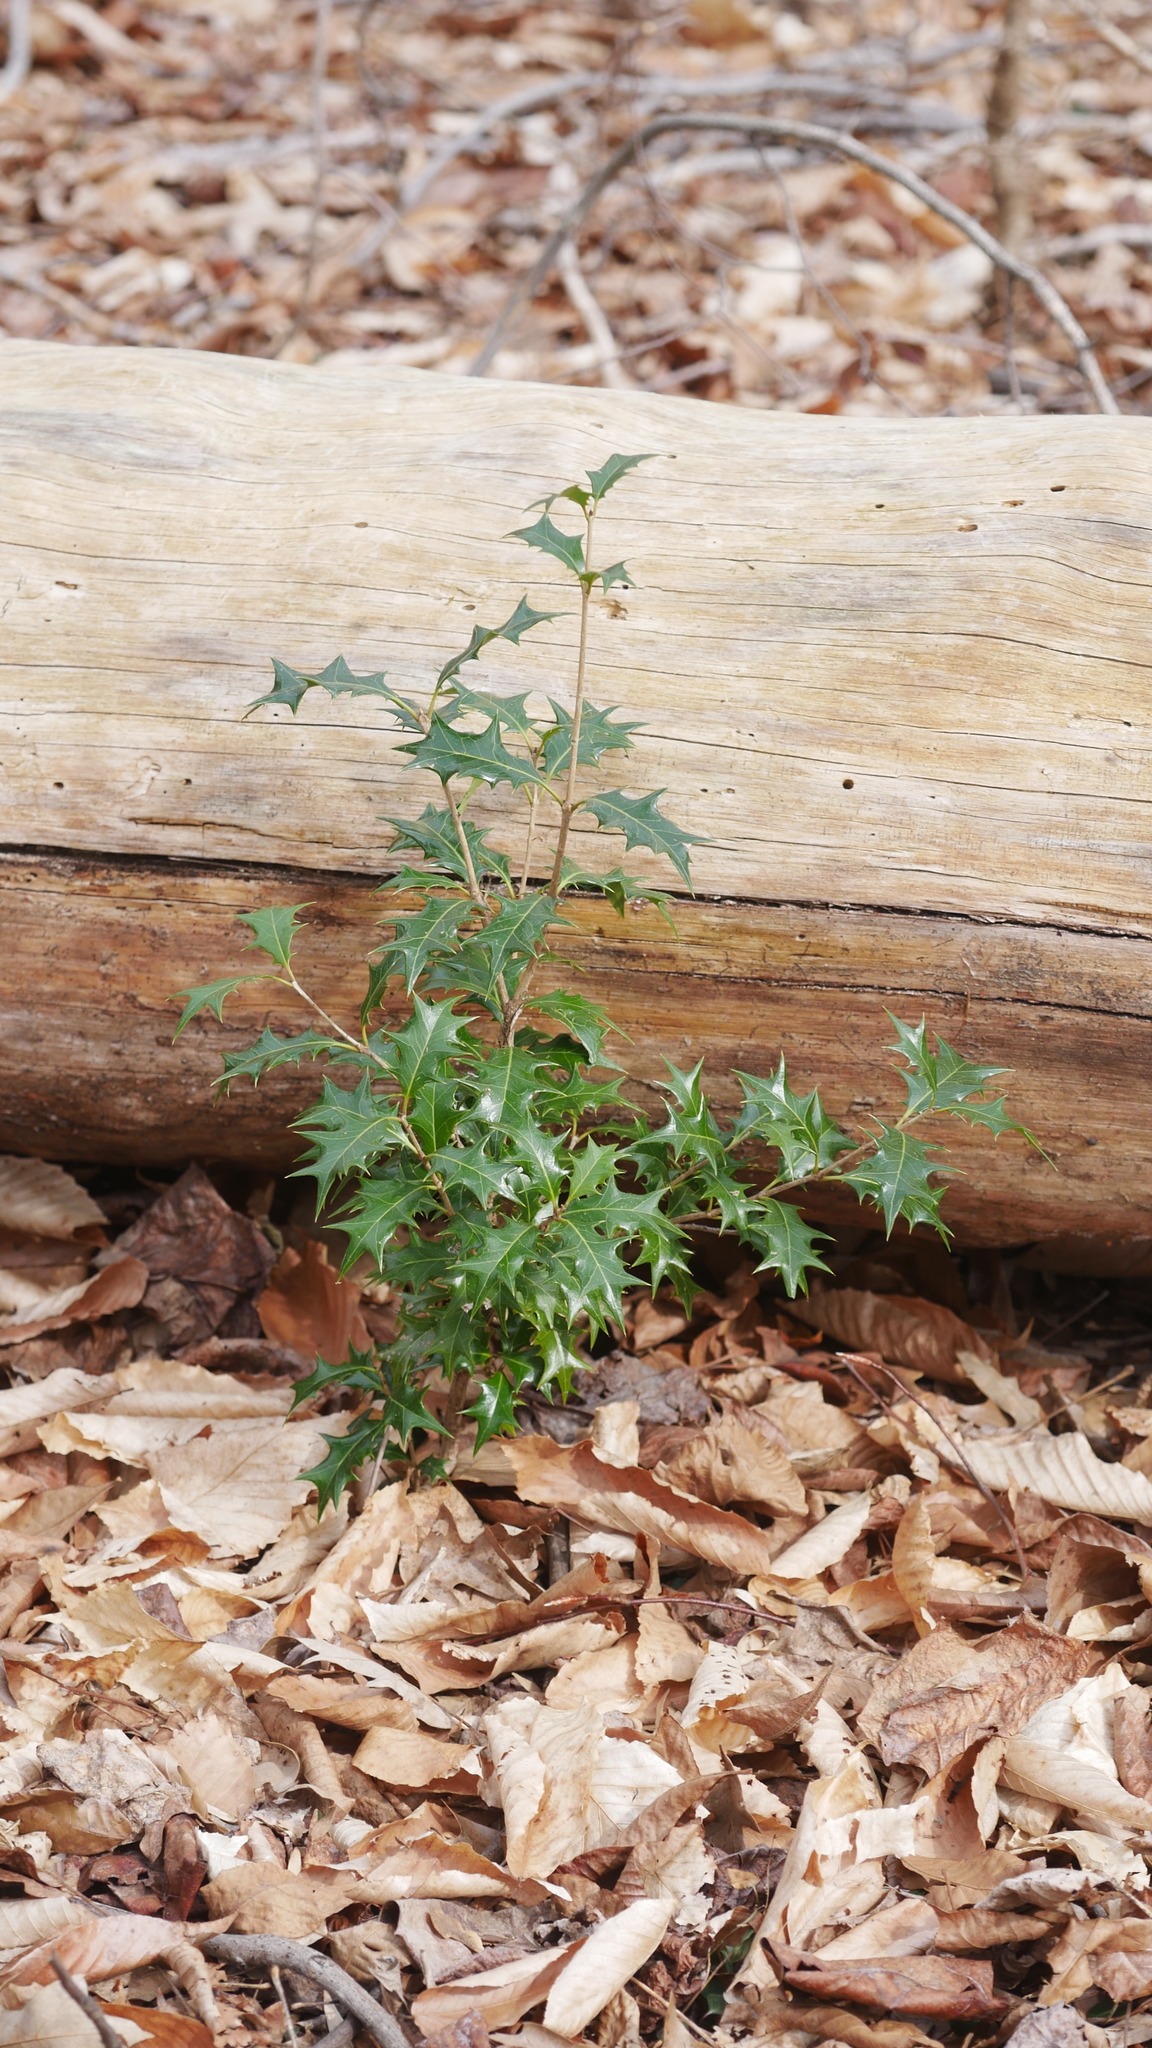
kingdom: Plantae
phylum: Tracheophyta
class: Magnoliopsida
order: Lamiales
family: Oleaceae
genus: Osmanthus
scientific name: Osmanthus heterophyllus
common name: Holly osmanthus
